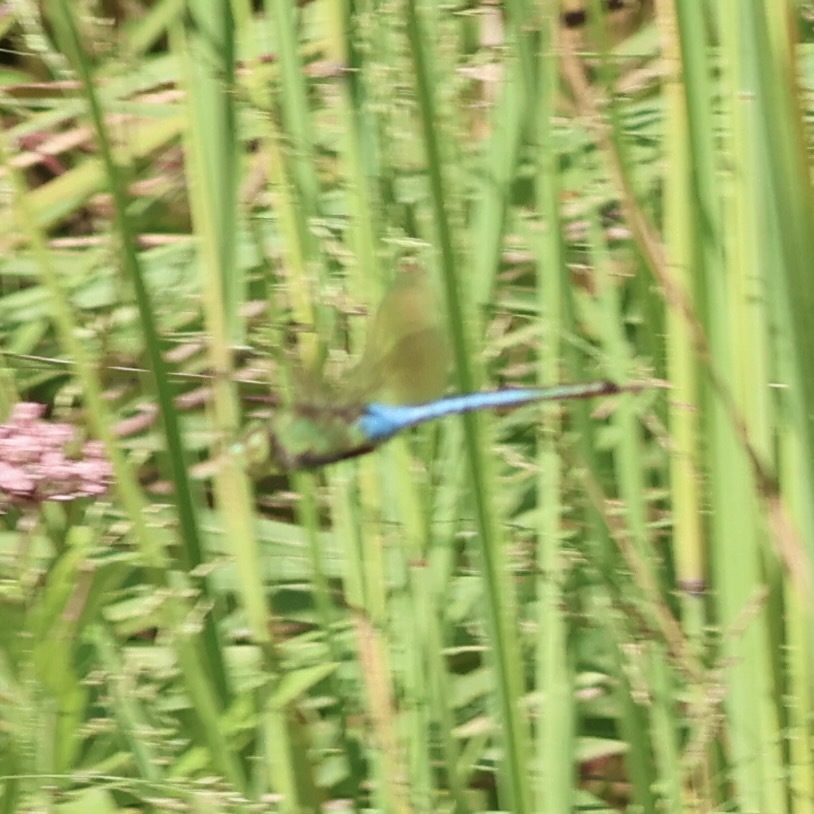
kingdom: Animalia
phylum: Arthropoda
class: Insecta
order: Odonata
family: Aeshnidae
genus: Anax
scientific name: Anax junius
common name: Common green darner
